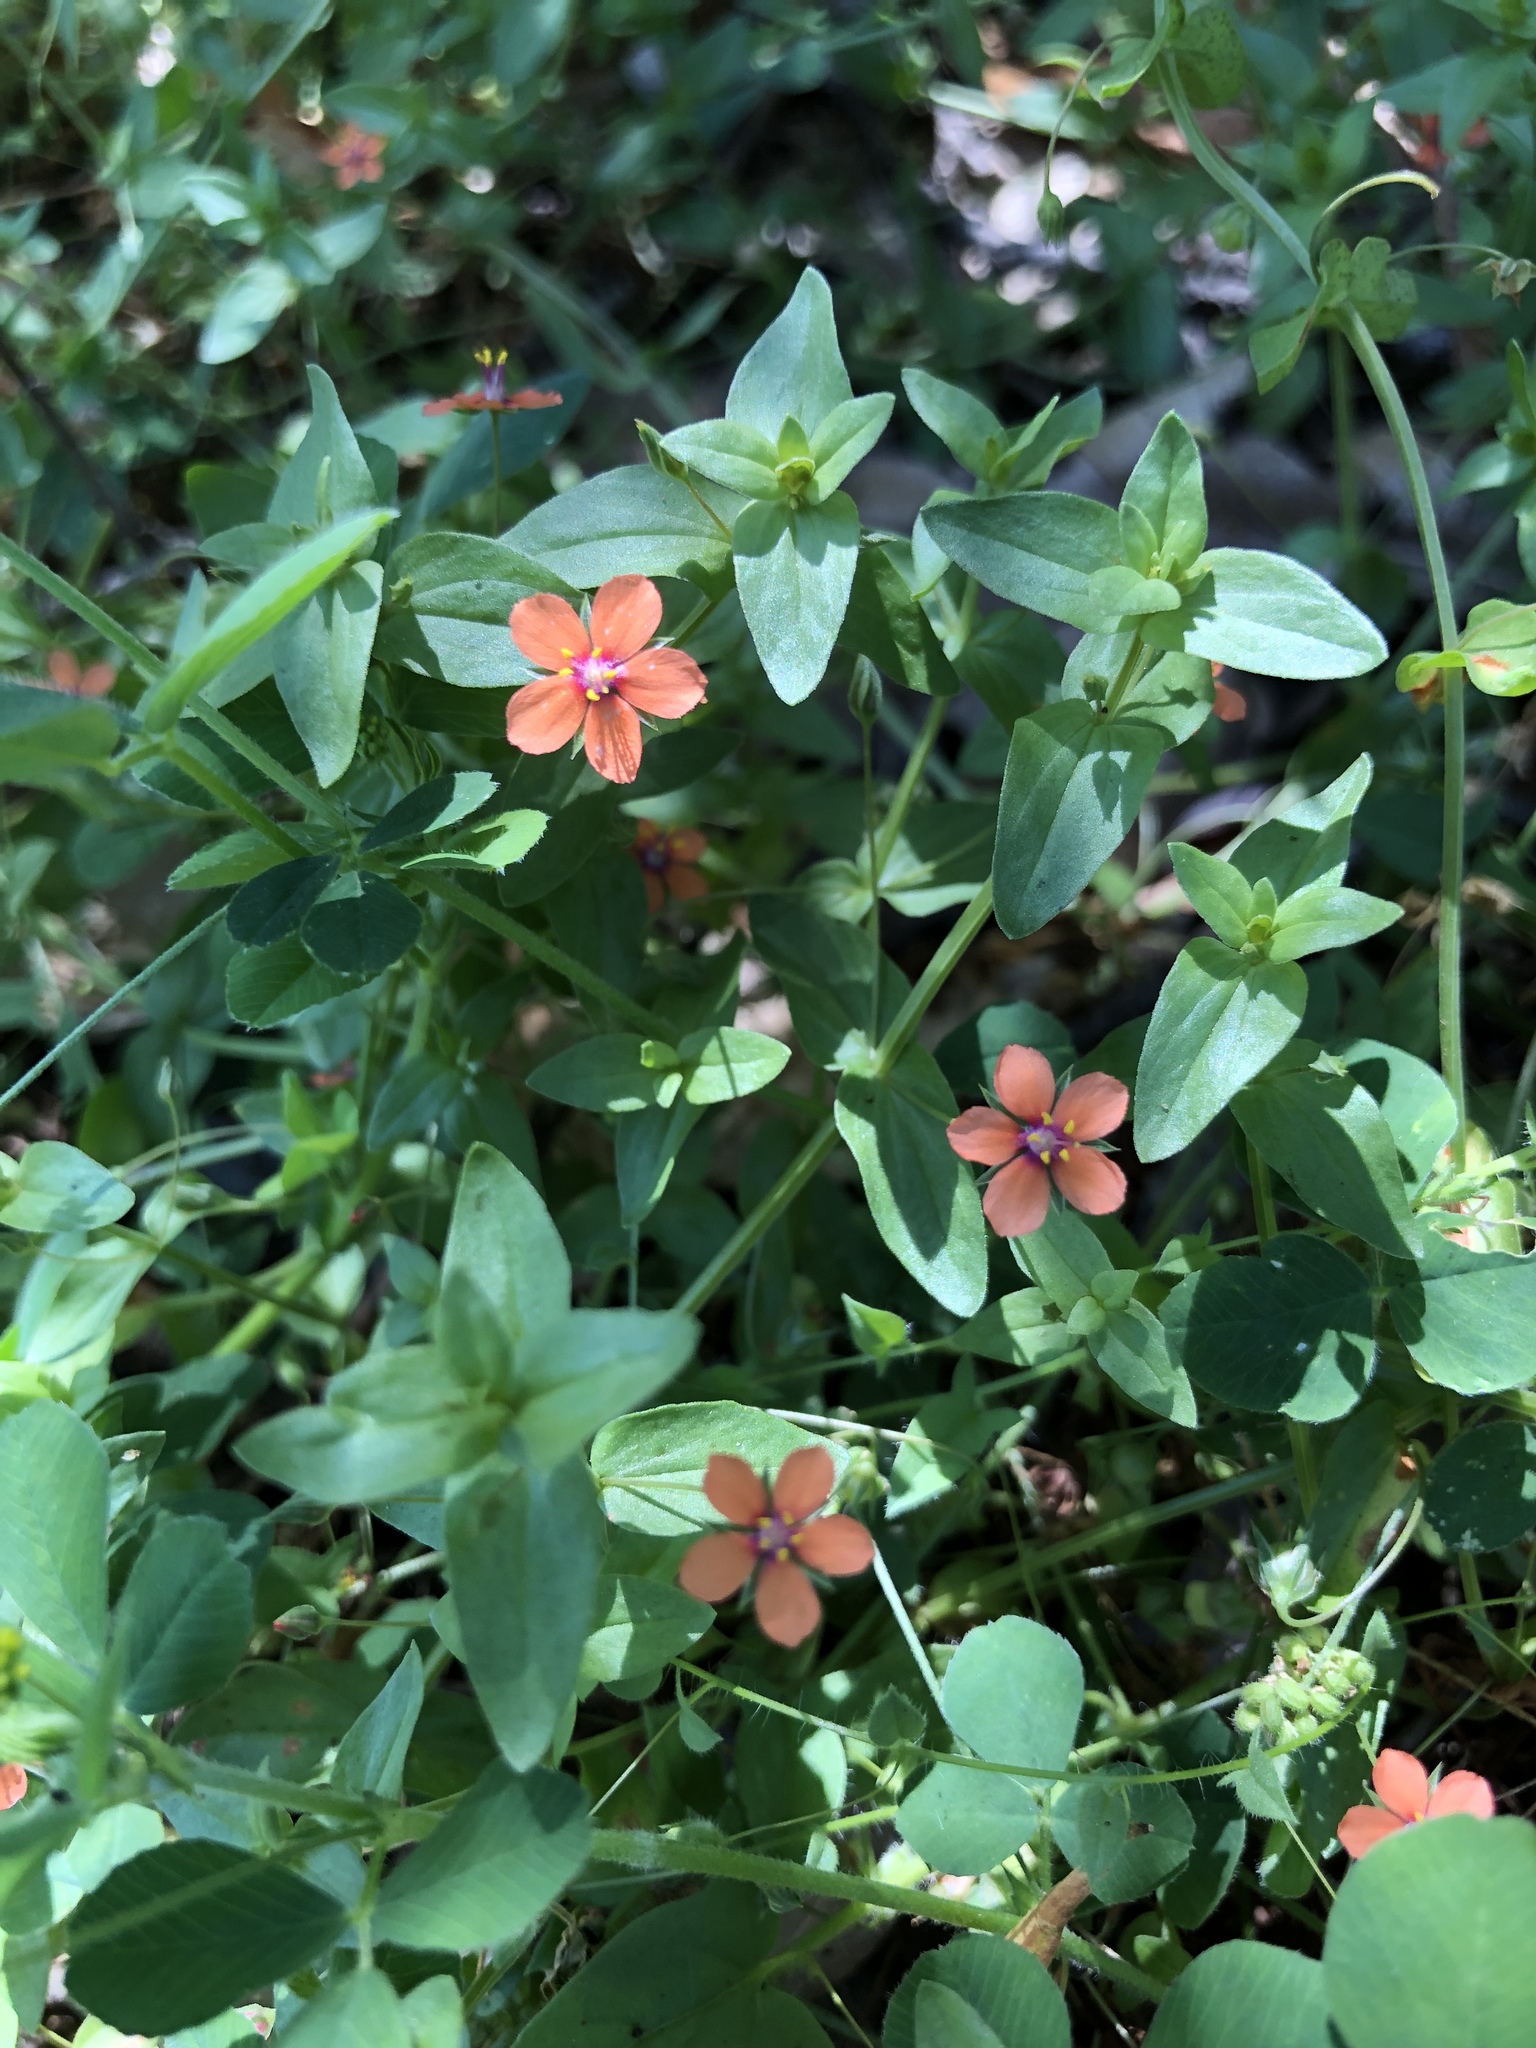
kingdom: Plantae
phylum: Tracheophyta
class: Magnoliopsida
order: Ericales
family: Primulaceae
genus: Lysimachia
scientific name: Lysimachia arvensis
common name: Scarlet pimpernel
